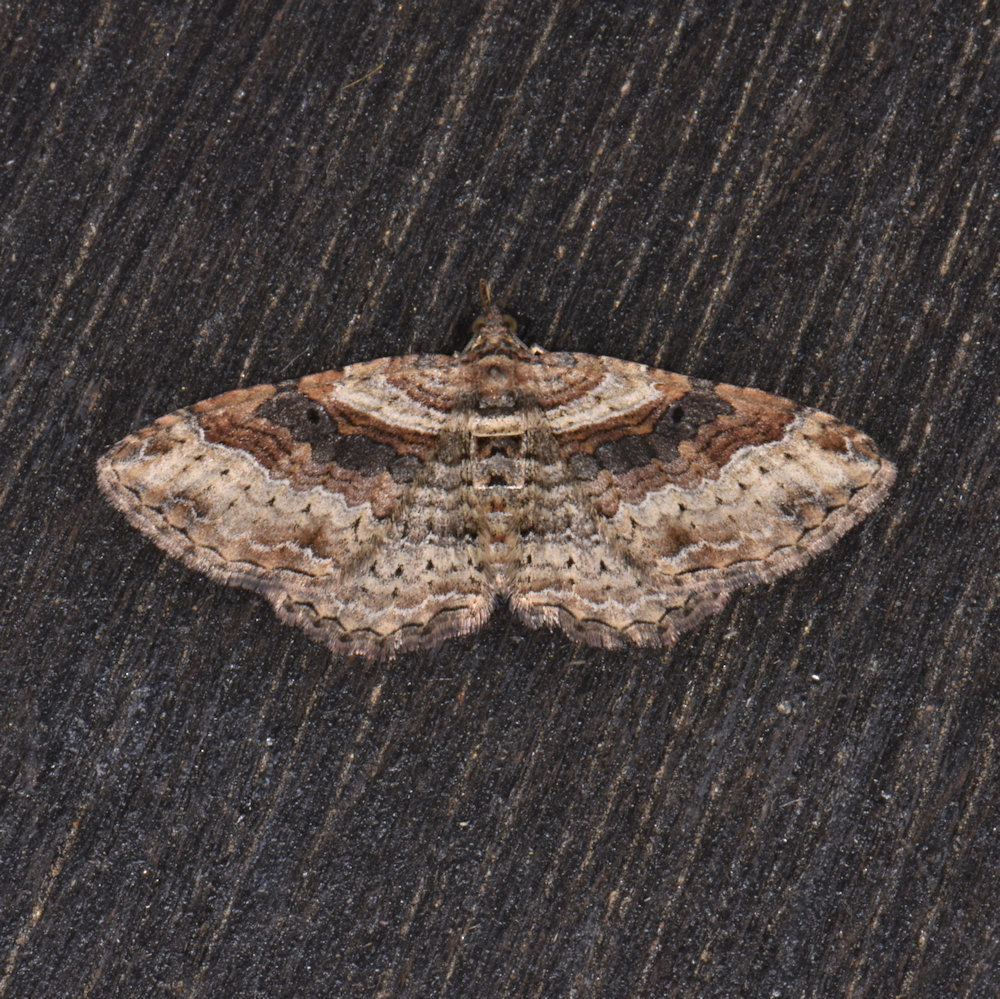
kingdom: Animalia
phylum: Arthropoda
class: Insecta
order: Lepidoptera
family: Geometridae
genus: Costaconvexa
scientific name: Costaconvexa centrostrigaria
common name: Bent-line carpet
